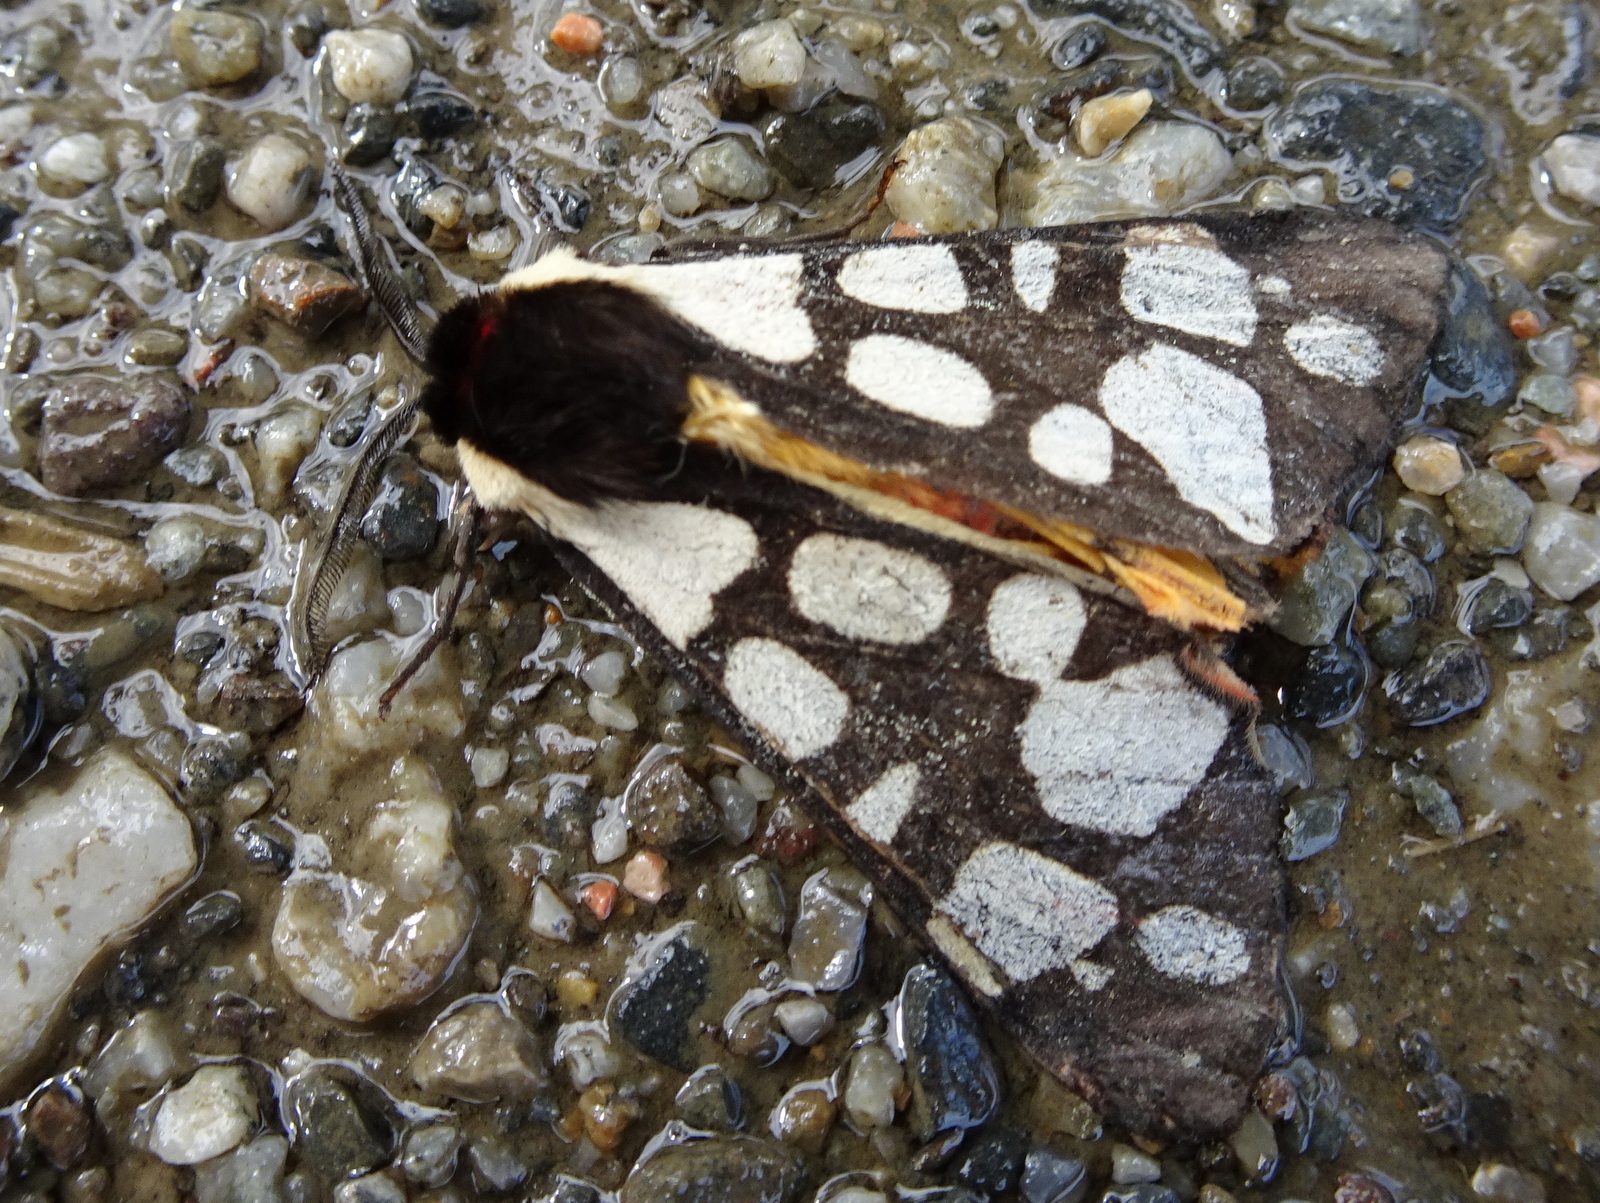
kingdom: Animalia
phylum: Arthropoda
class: Insecta
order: Lepidoptera
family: Erebidae
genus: Epicallia
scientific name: Epicallia villica
